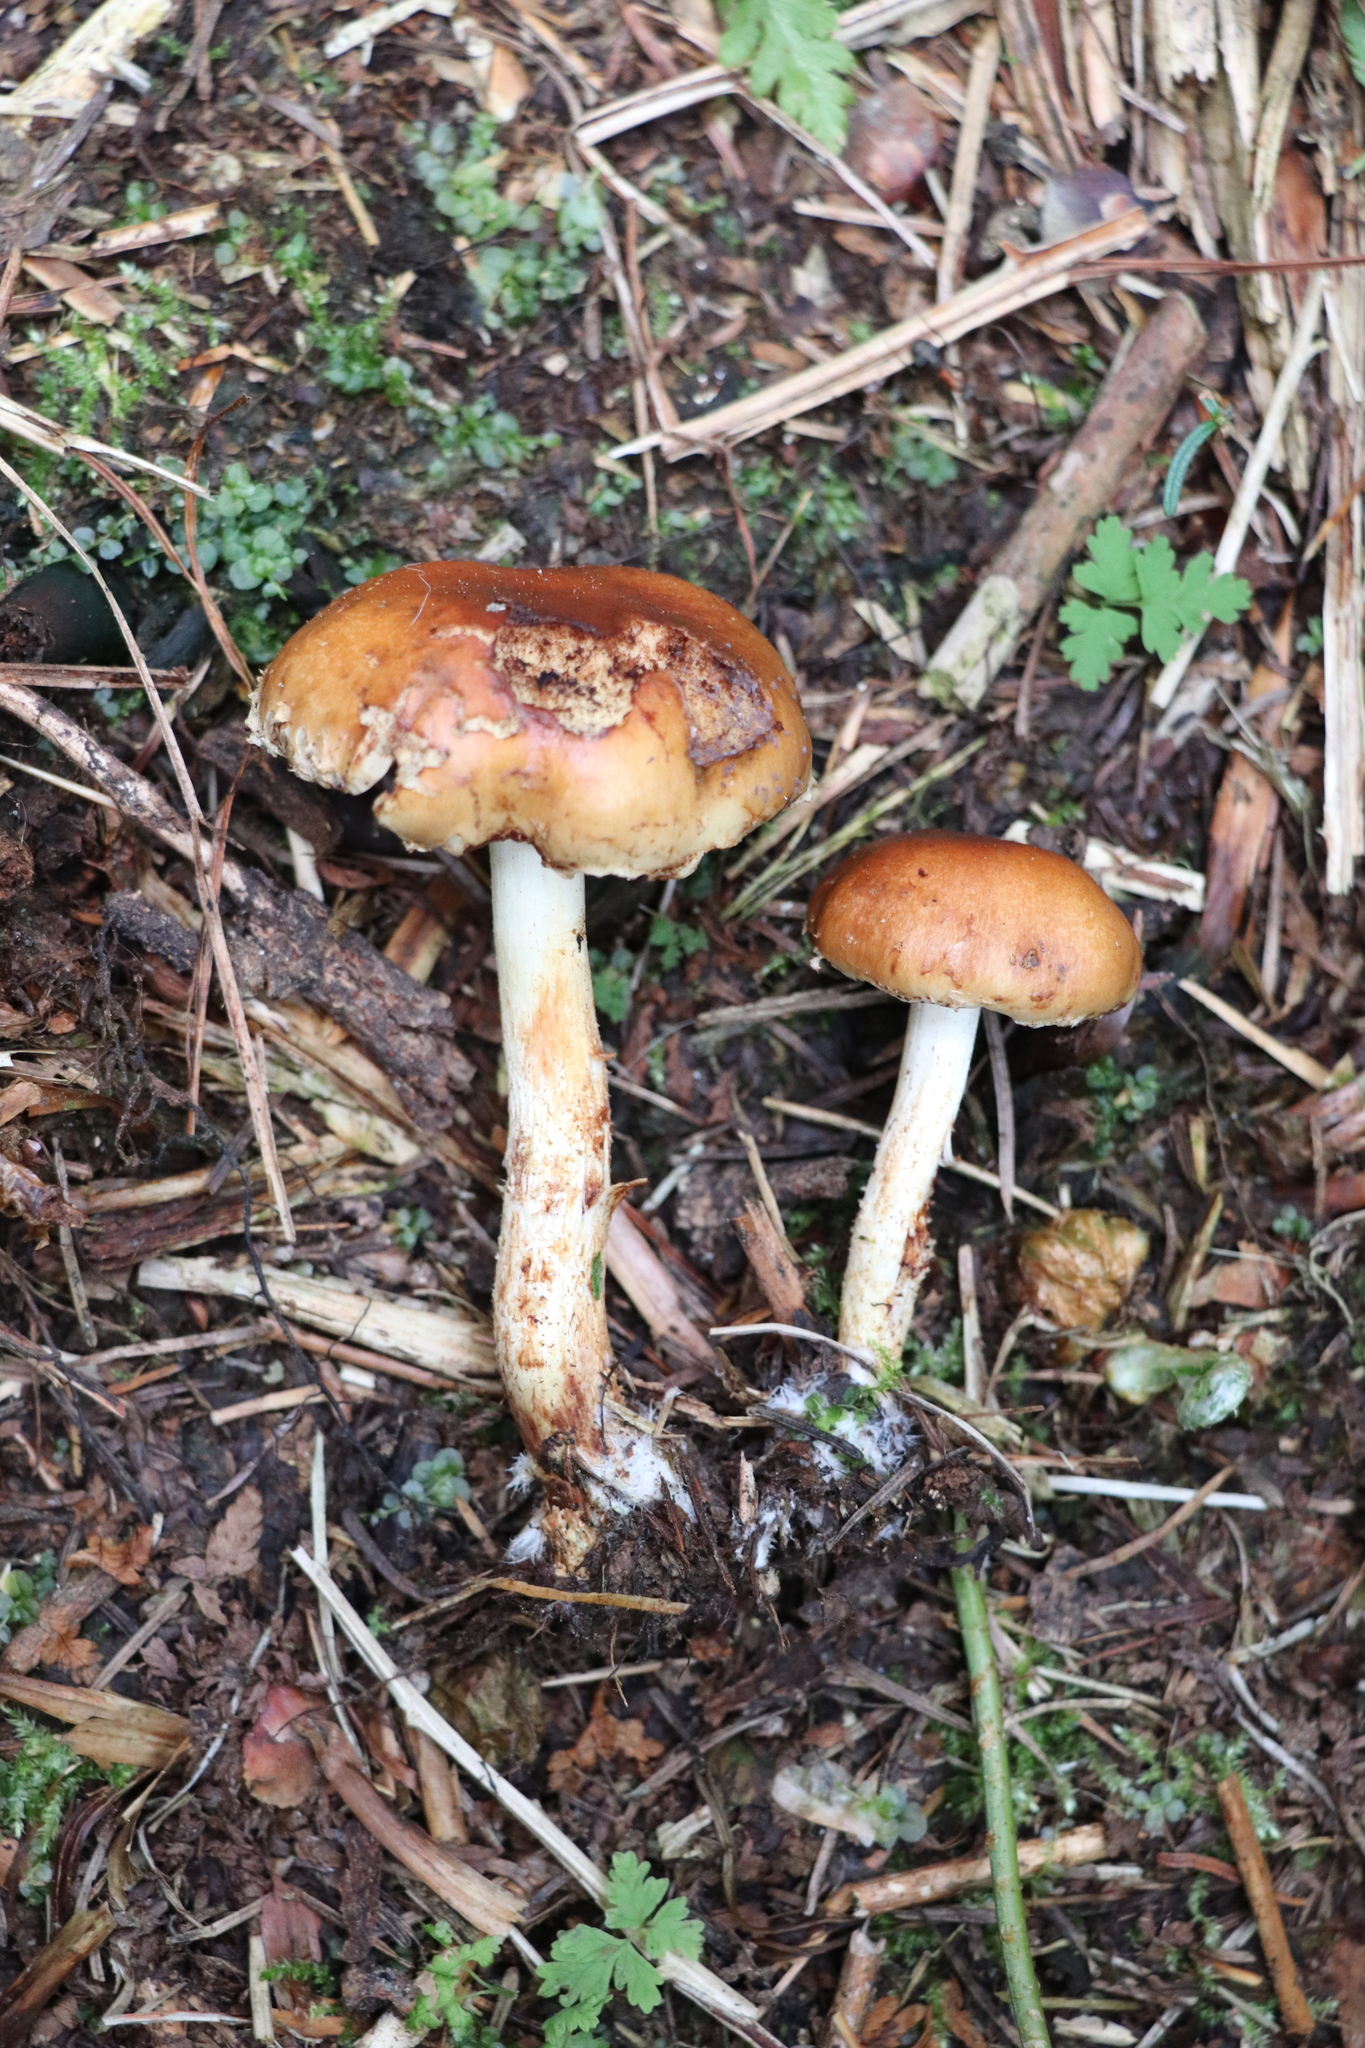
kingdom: Fungi
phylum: Basidiomycota
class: Agaricomycetes
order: Agaricales
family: Strophariaceae
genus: Pholiota
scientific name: Pholiota lubrica
